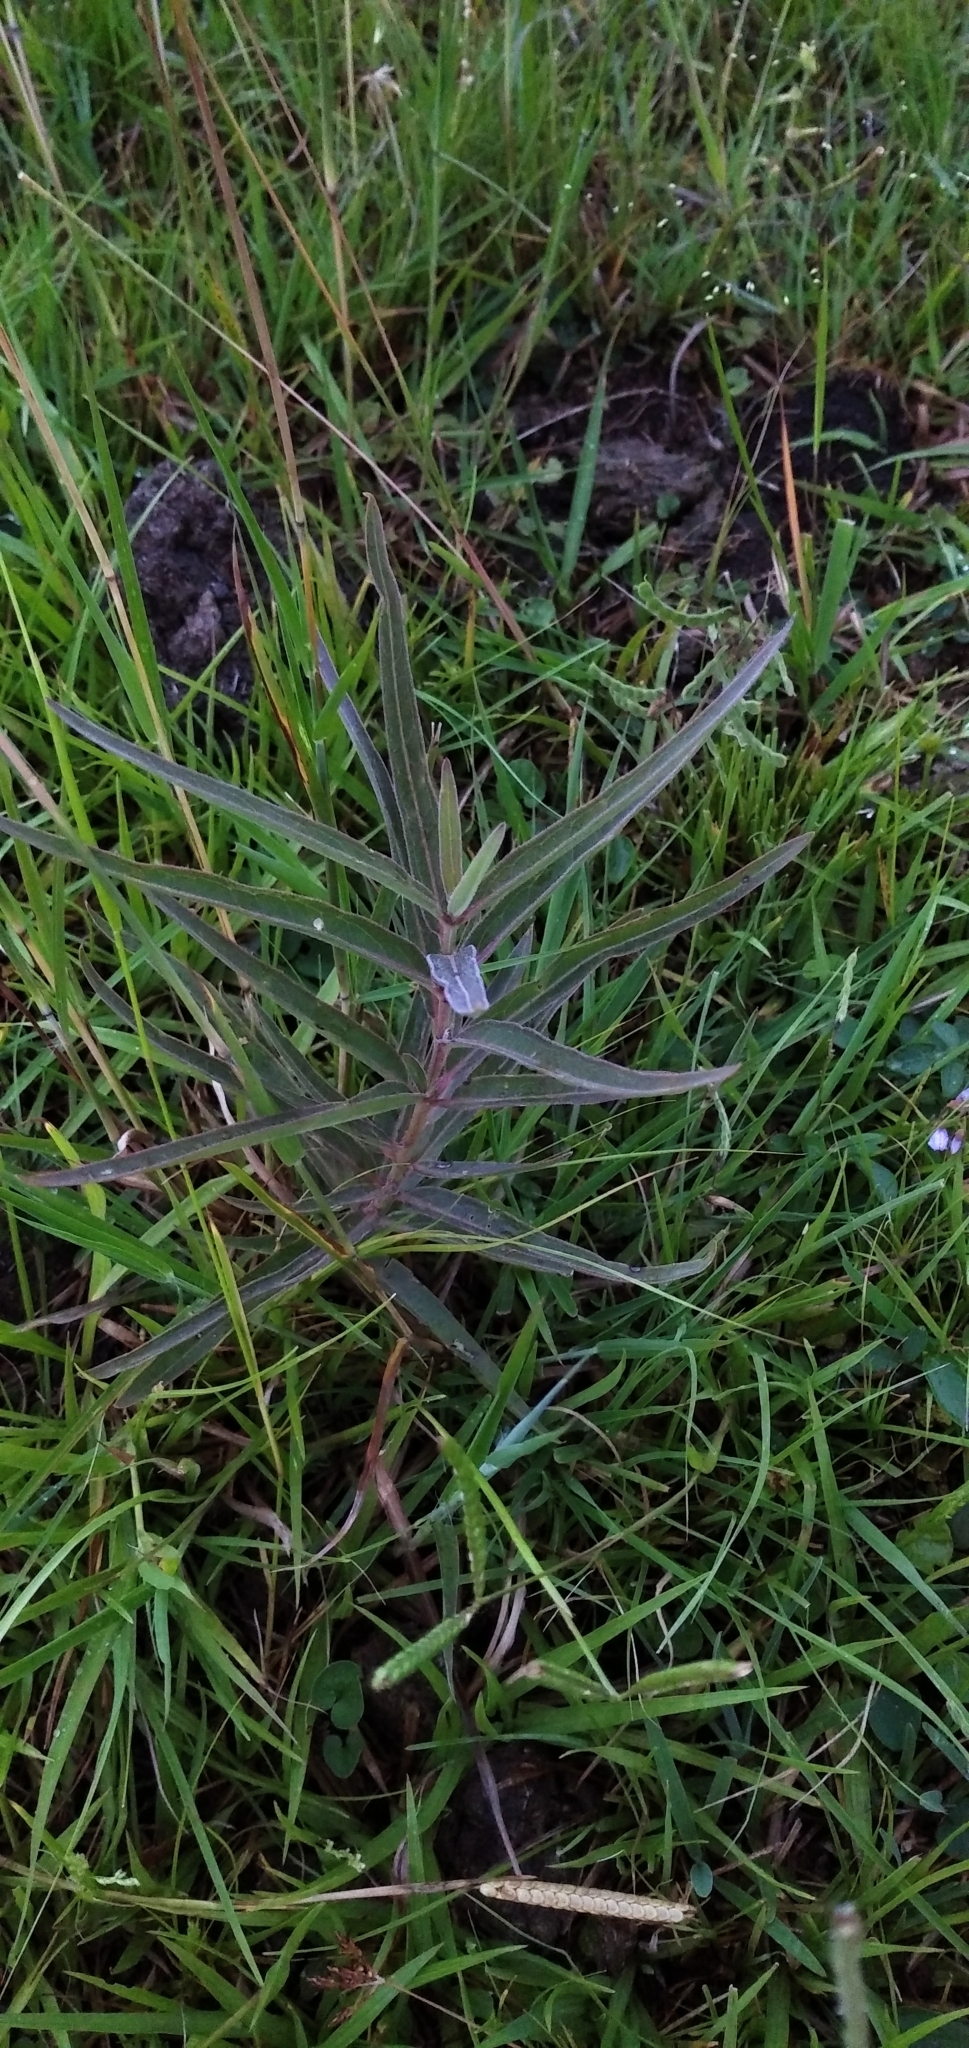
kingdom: Plantae
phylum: Tracheophyta
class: Magnoliopsida
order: Gentianales
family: Apocynaceae
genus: Asclepias
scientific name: Asclepias mellodora
